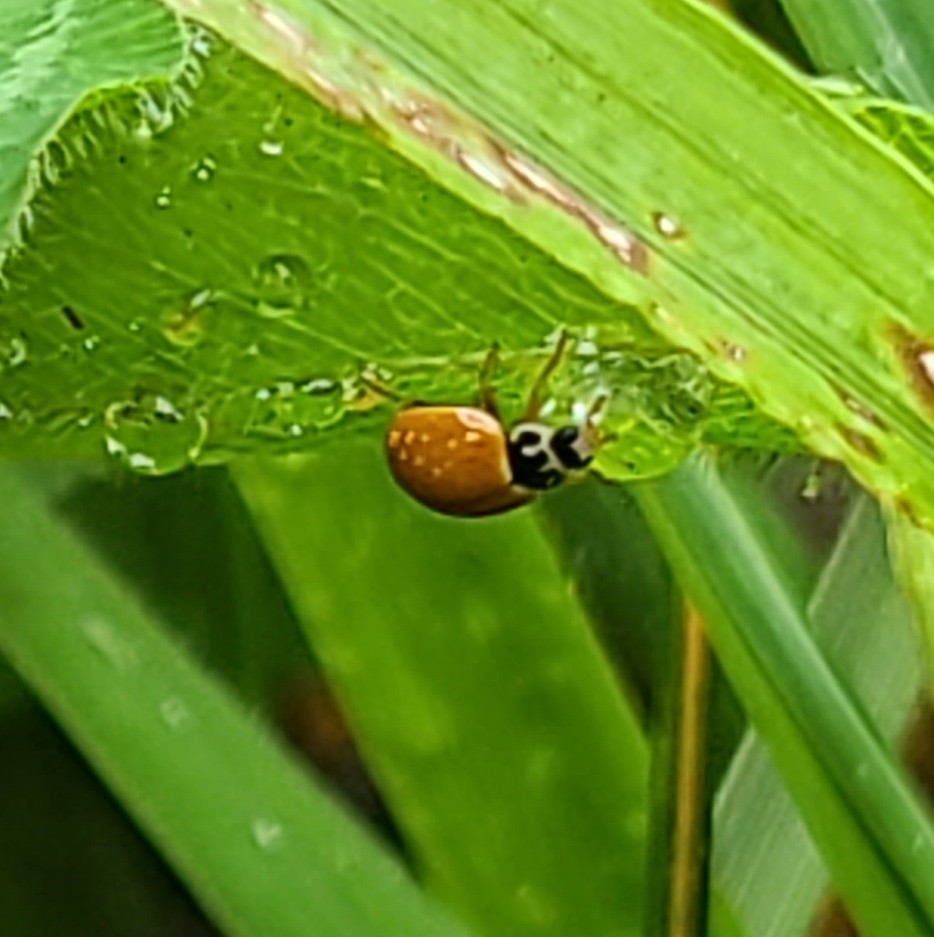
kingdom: Animalia
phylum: Arthropoda
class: Insecta
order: Coleoptera
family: Coccinellidae
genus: Cycloneda
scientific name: Cycloneda munda
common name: Polished lady beetle
